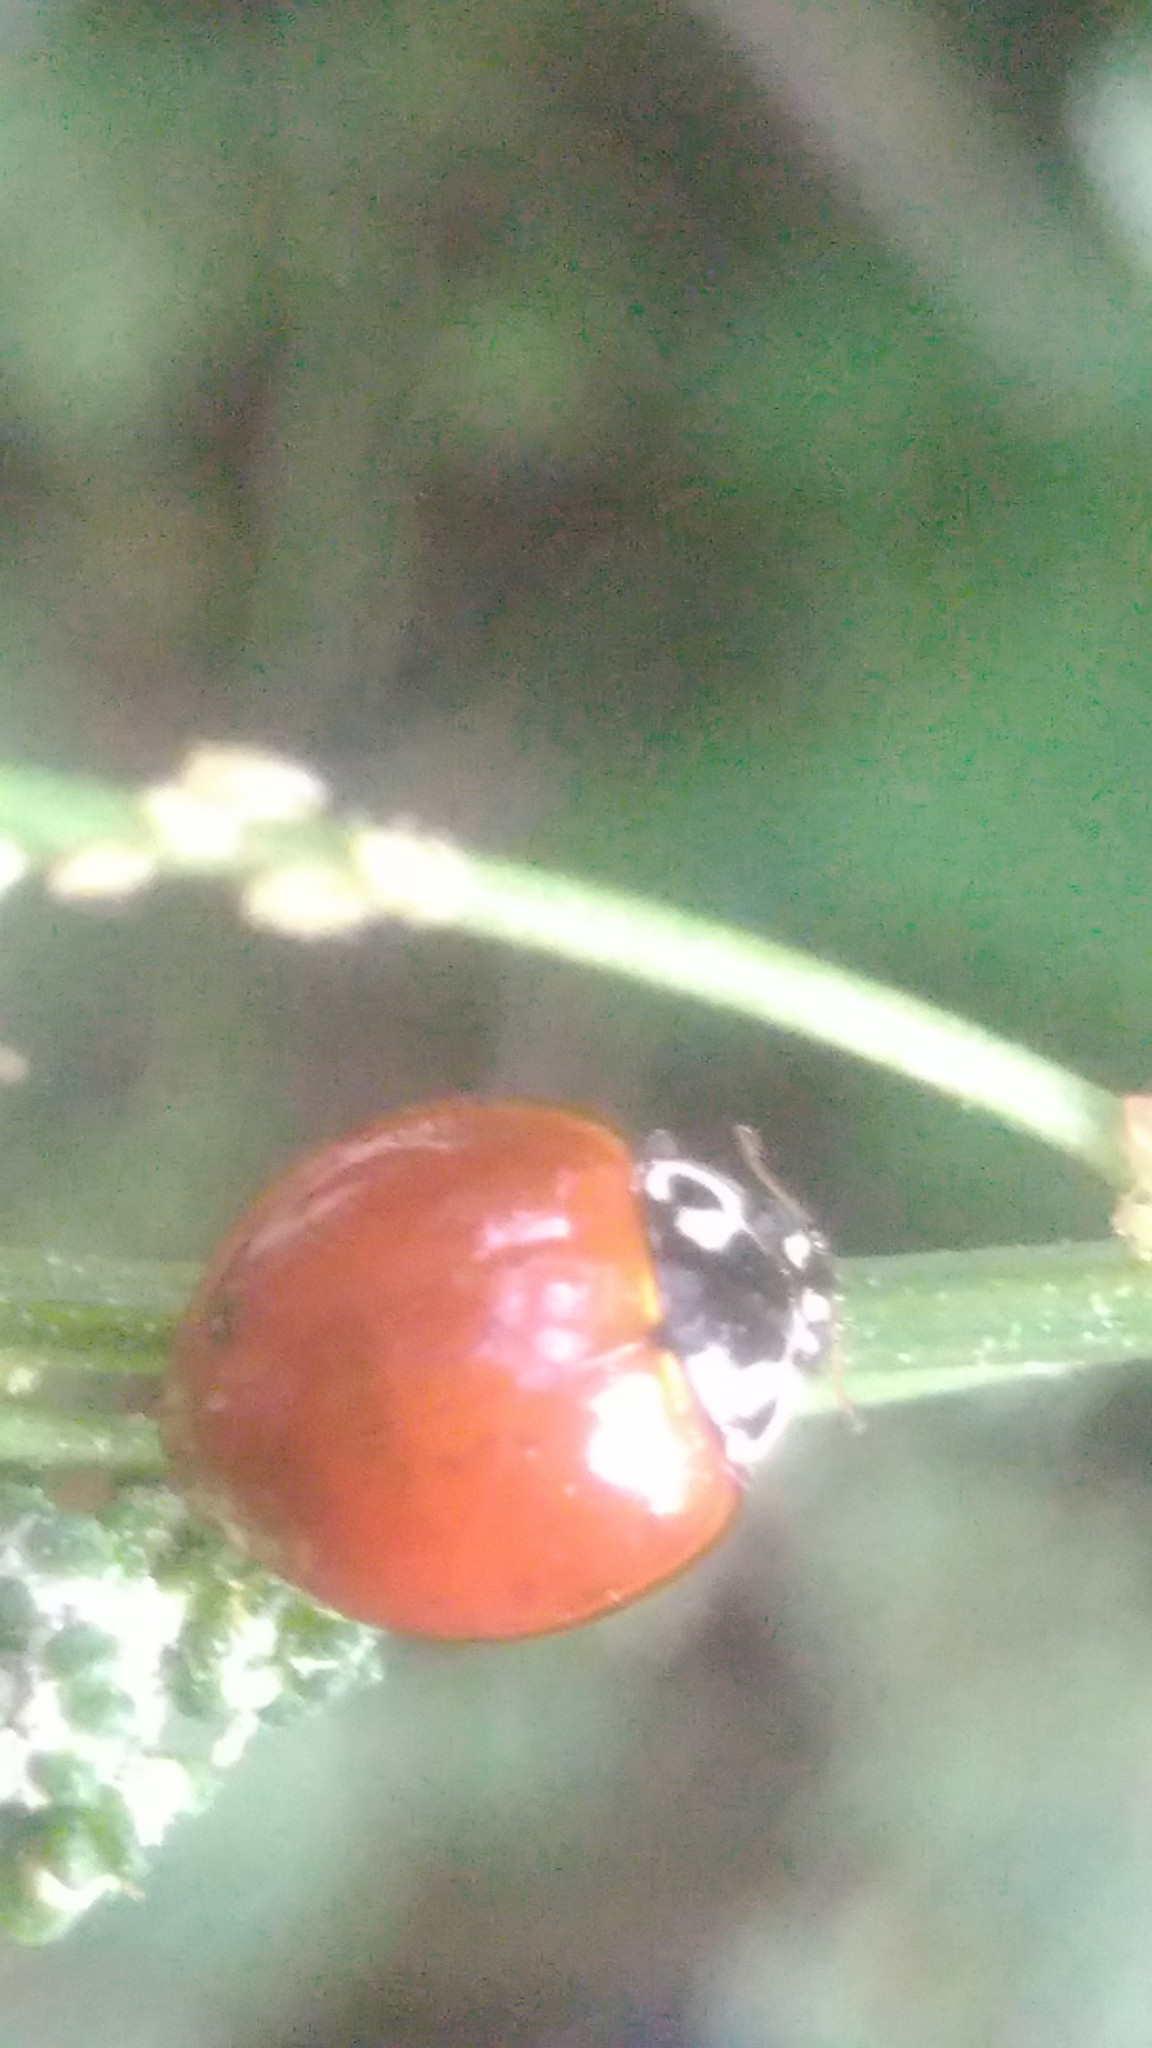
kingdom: Animalia
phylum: Arthropoda
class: Insecta
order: Coleoptera
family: Coccinellidae
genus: Cycloneda
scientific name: Cycloneda sanguinea
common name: Ladybird beetle
